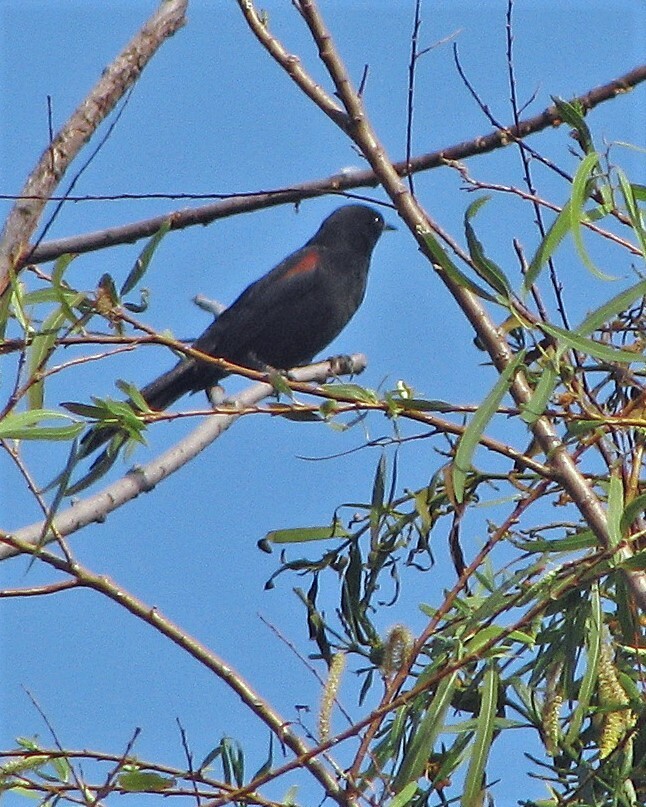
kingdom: Animalia
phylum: Chordata
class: Aves
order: Passeriformes
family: Icteridae
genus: Icterus
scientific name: Icterus cayanensis
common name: Epaulet oriole
